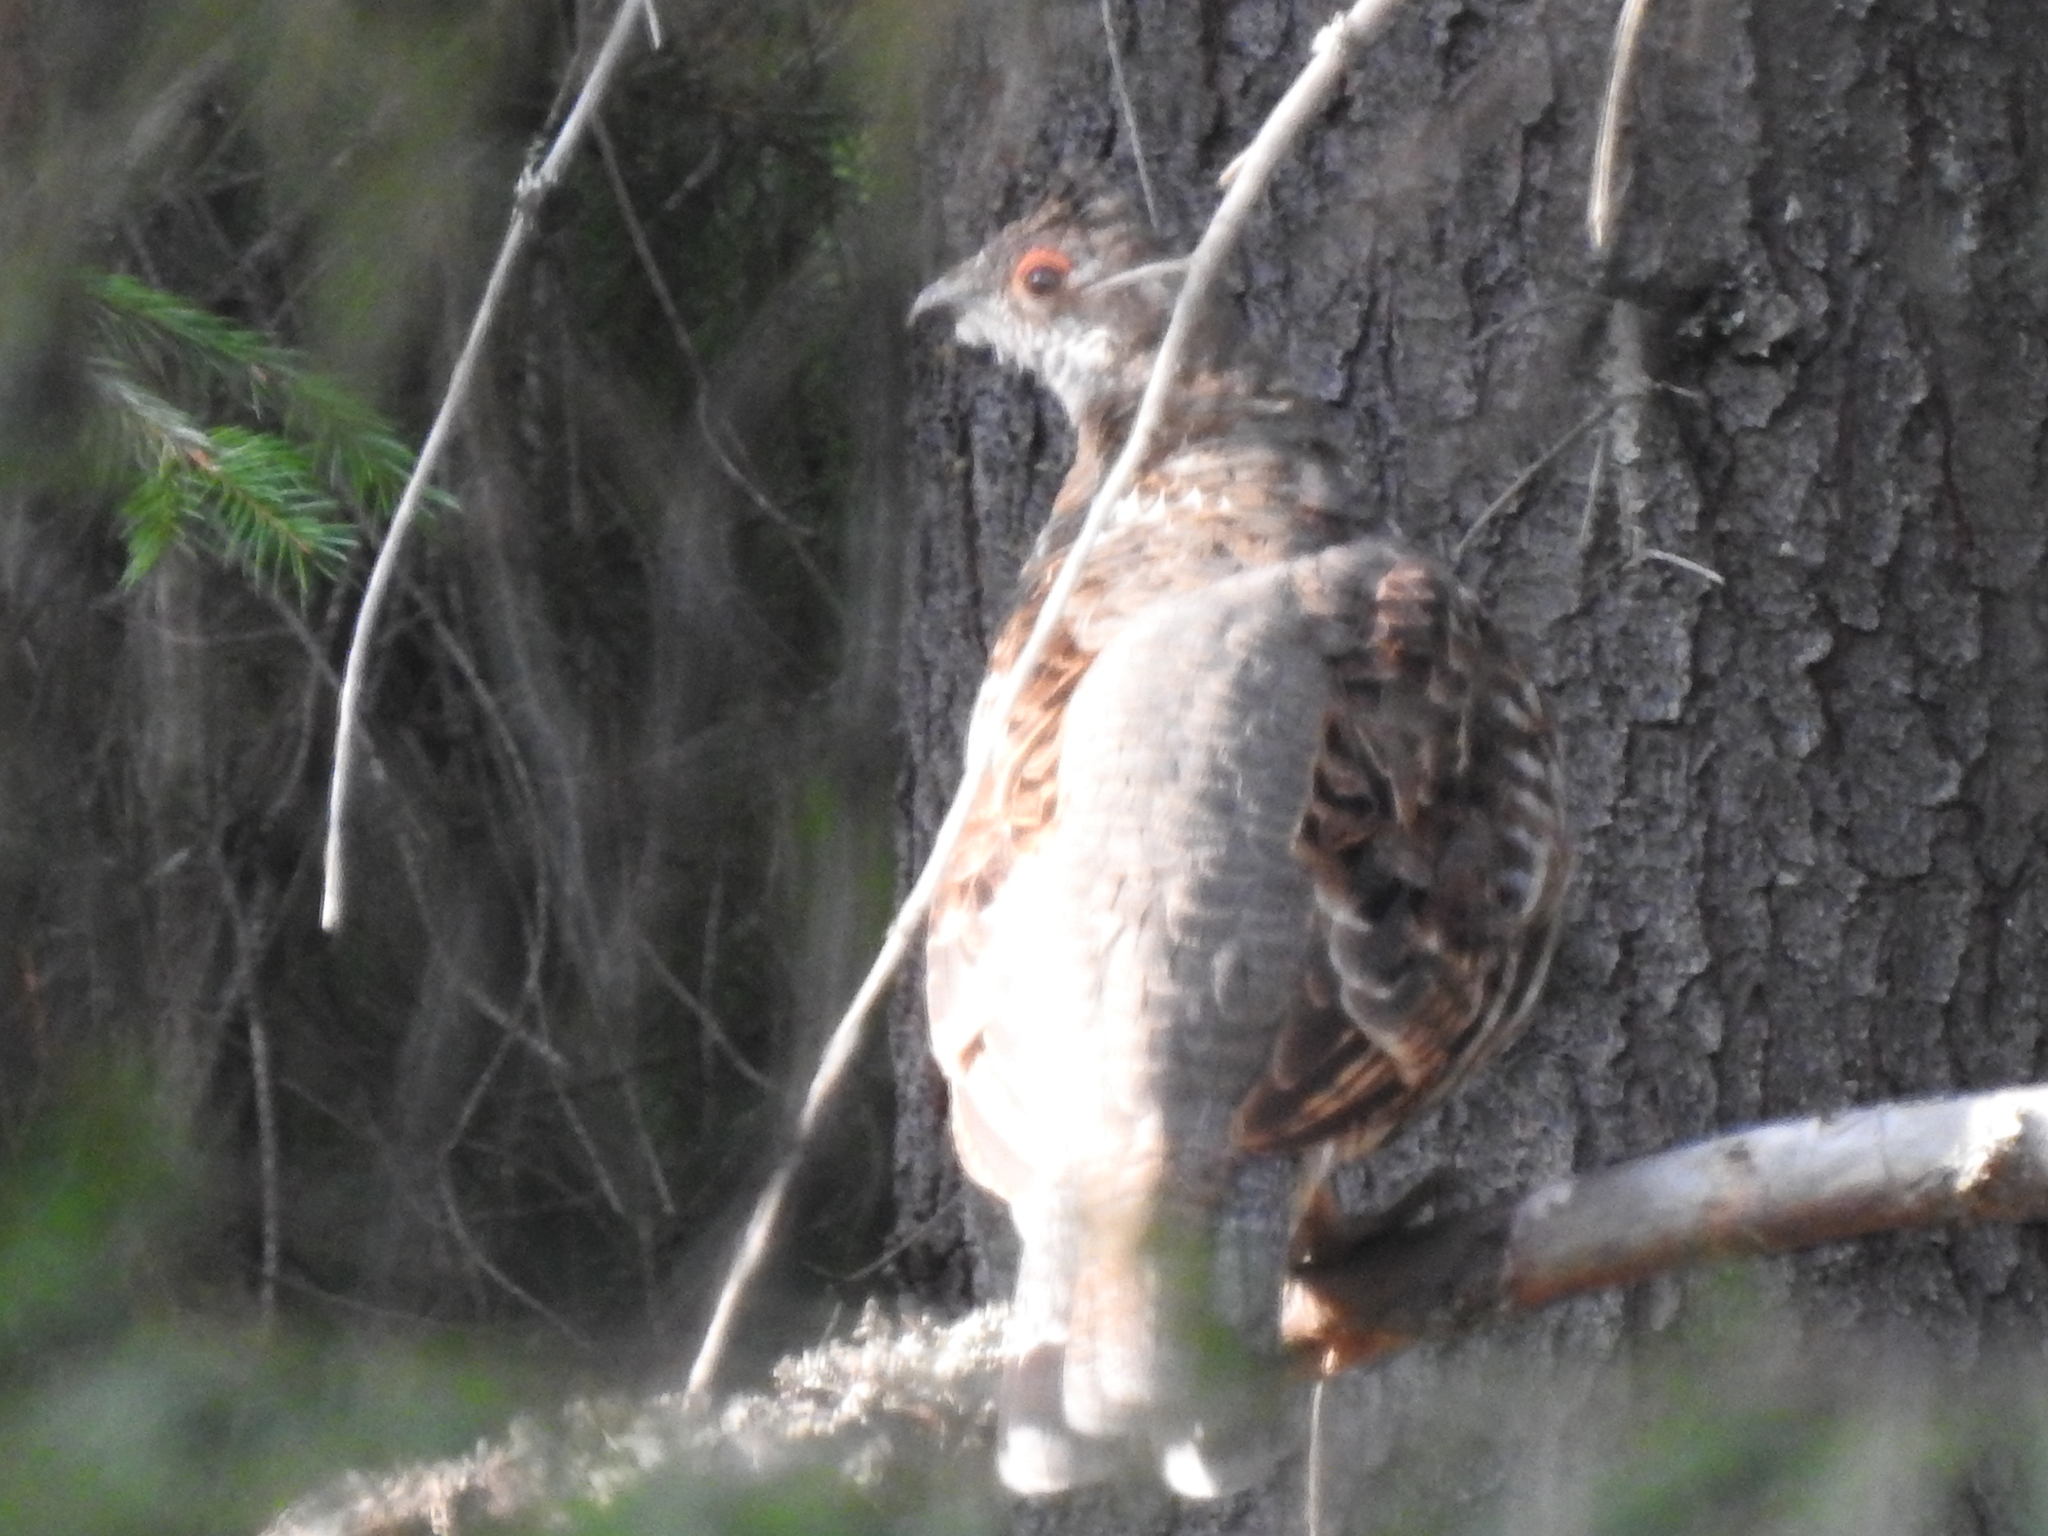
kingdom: Animalia
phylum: Chordata
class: Aves
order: Galliformes
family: Phasianidae
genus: Tetrastes
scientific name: Tetrastes bonasia
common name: Hazel grouse
